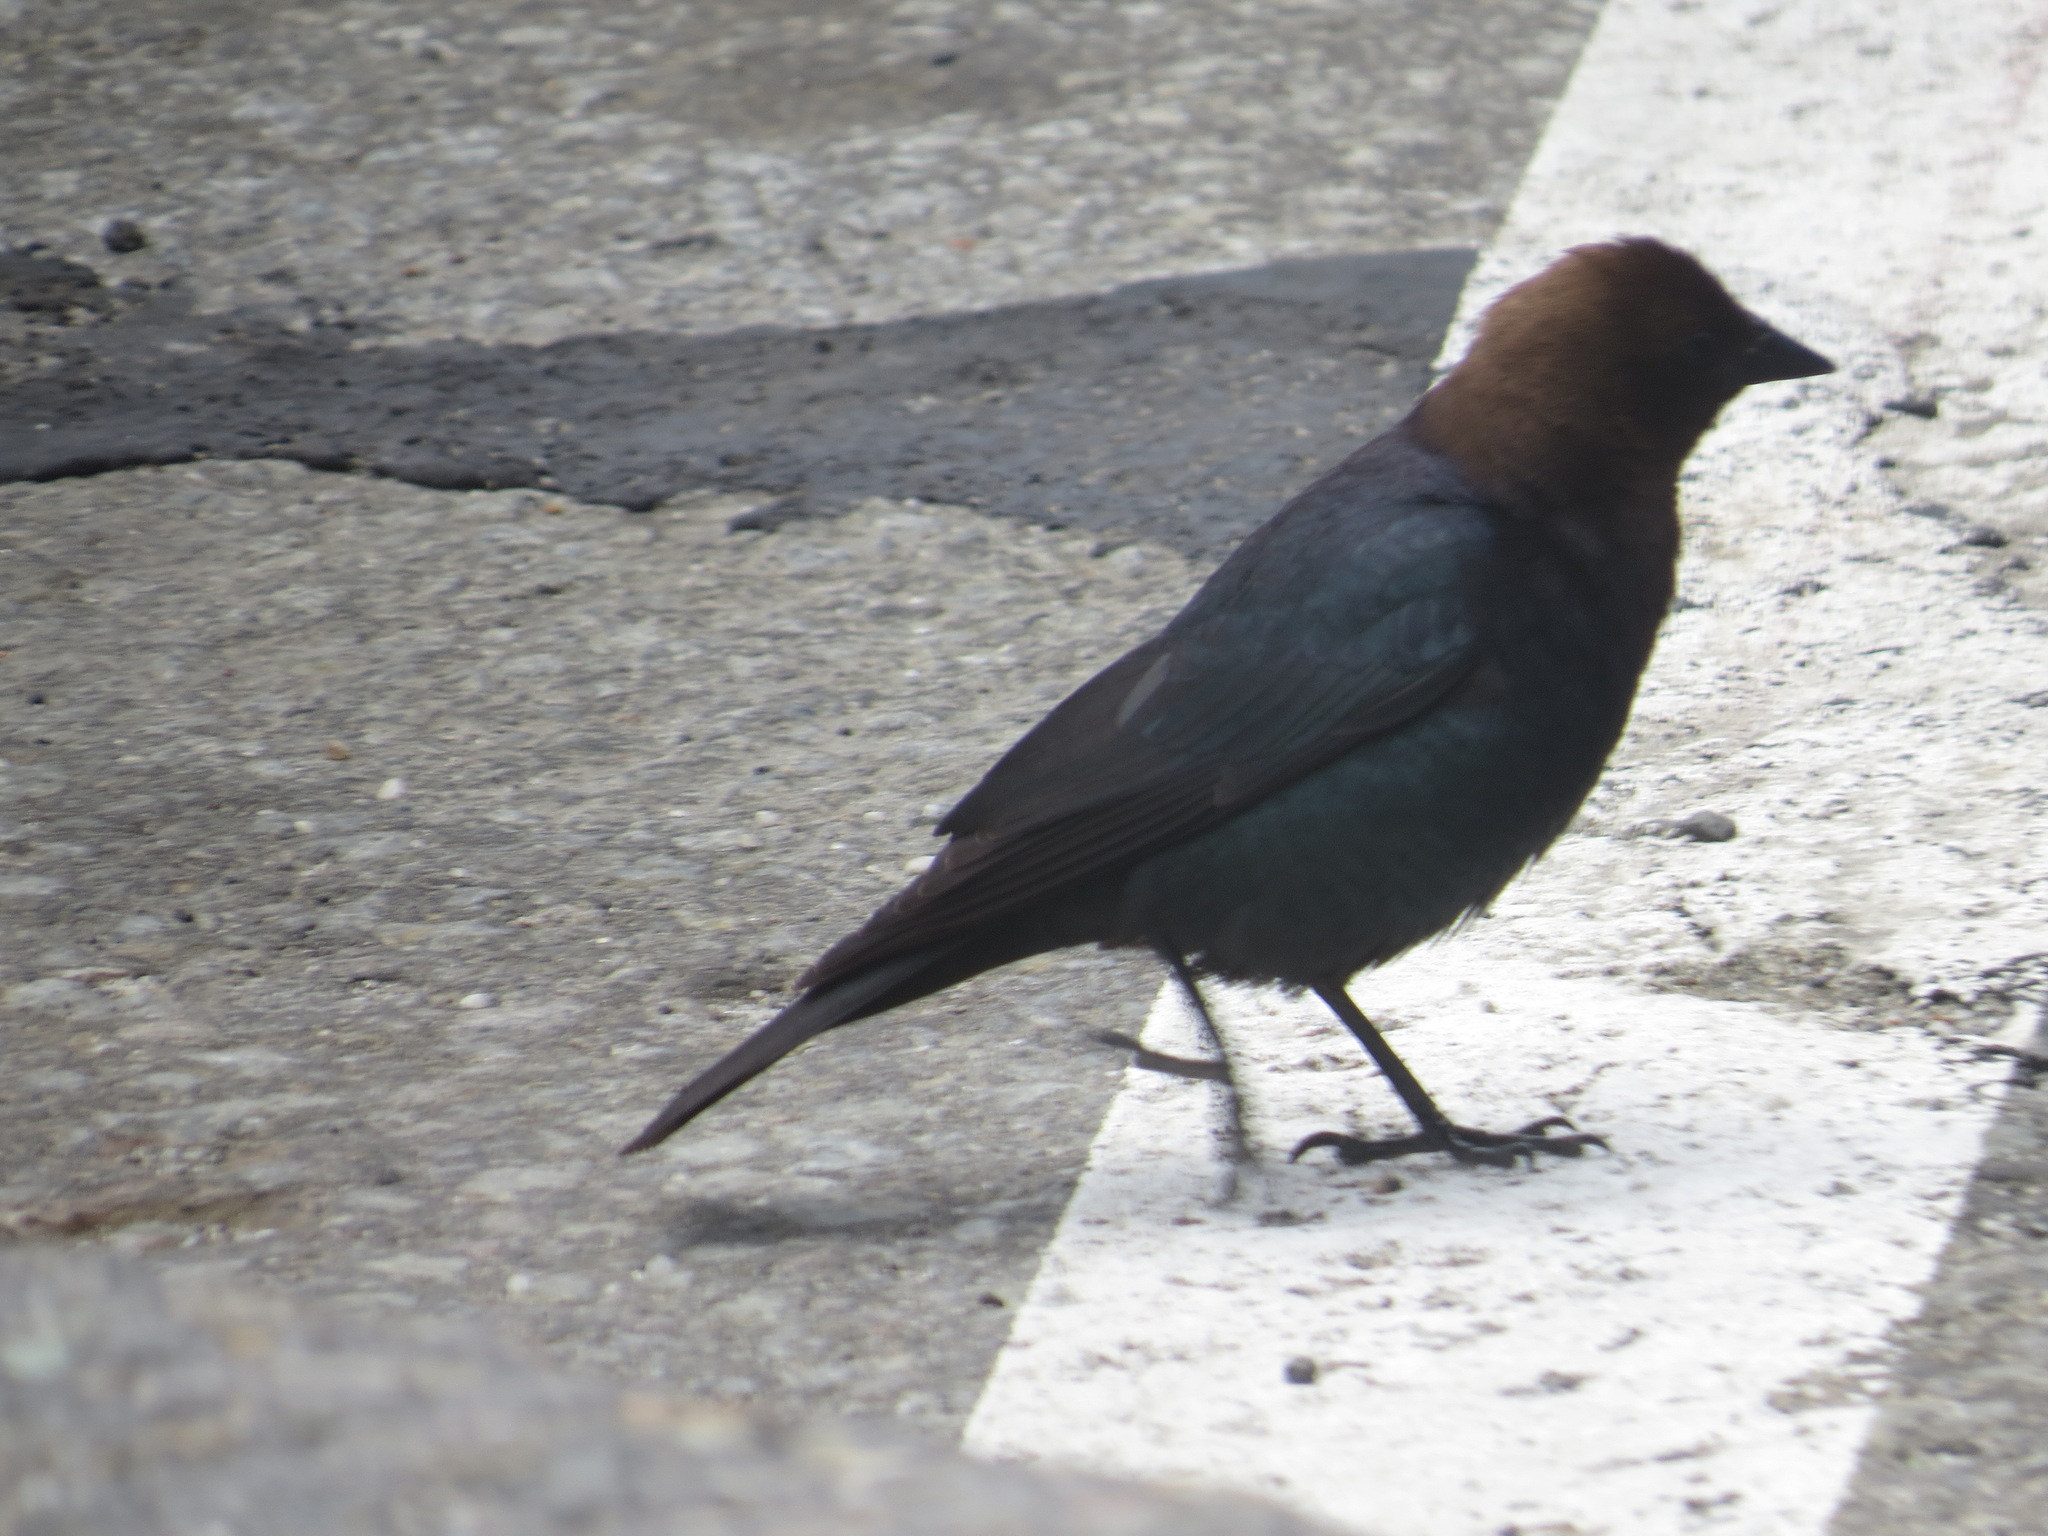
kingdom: Animalia
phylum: Chordata
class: Aves
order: Passeriformes
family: Icteridae
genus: Molothrus
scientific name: Molothrus ater
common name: Brown-headed cowbird
